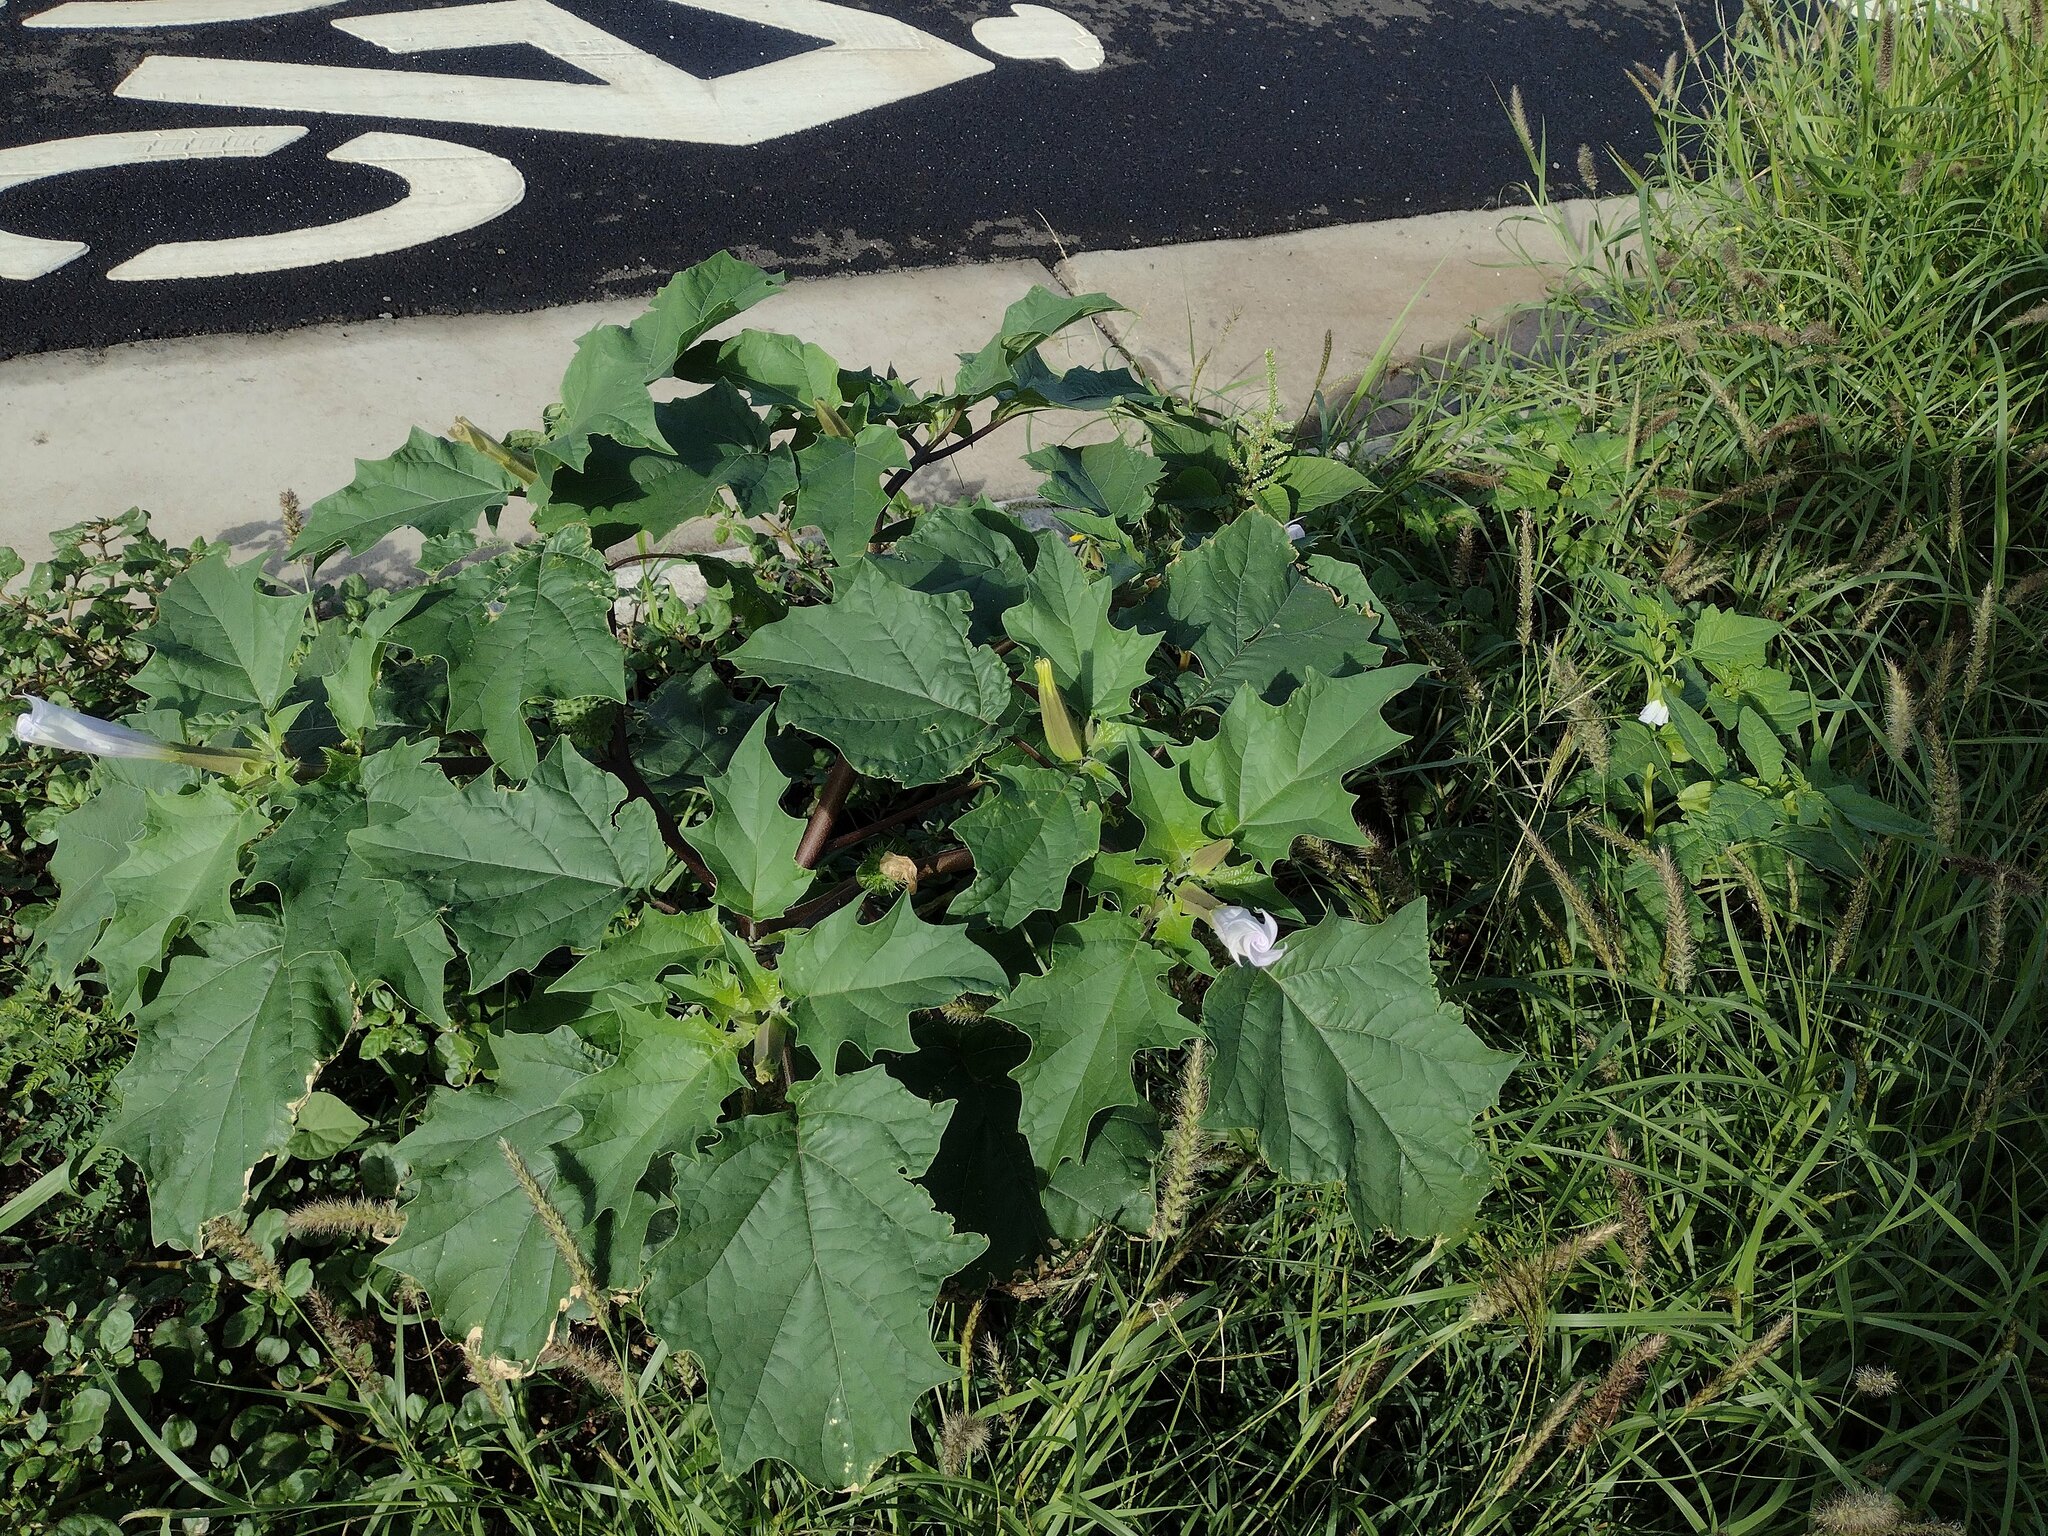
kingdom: Plantae
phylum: Tracheophyta
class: Magnoliopsida
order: Solanales
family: Solanaceae
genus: Datura
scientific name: Datura stramonium
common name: Thorn-apple
